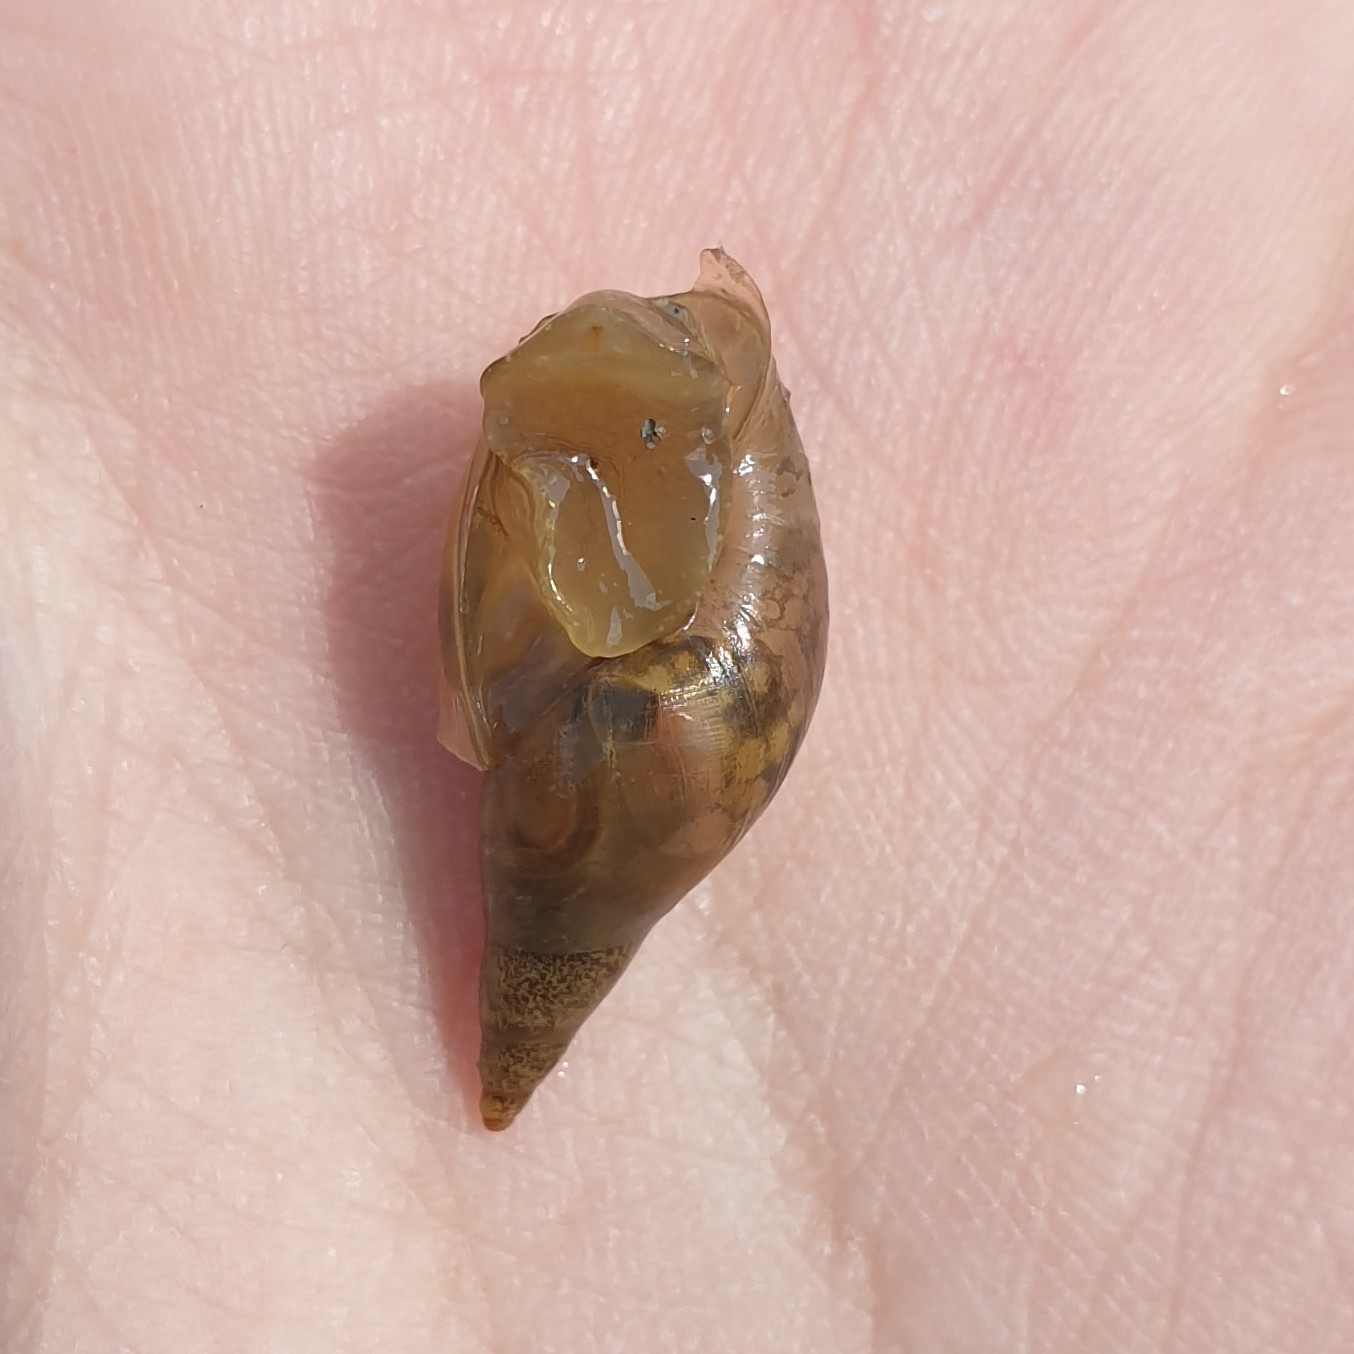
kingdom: Animalia
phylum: Mollusca
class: Gastropoda
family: Lymnaeidae
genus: Lymnaea
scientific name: Lymnaea stagnalis
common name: Great pond snail
